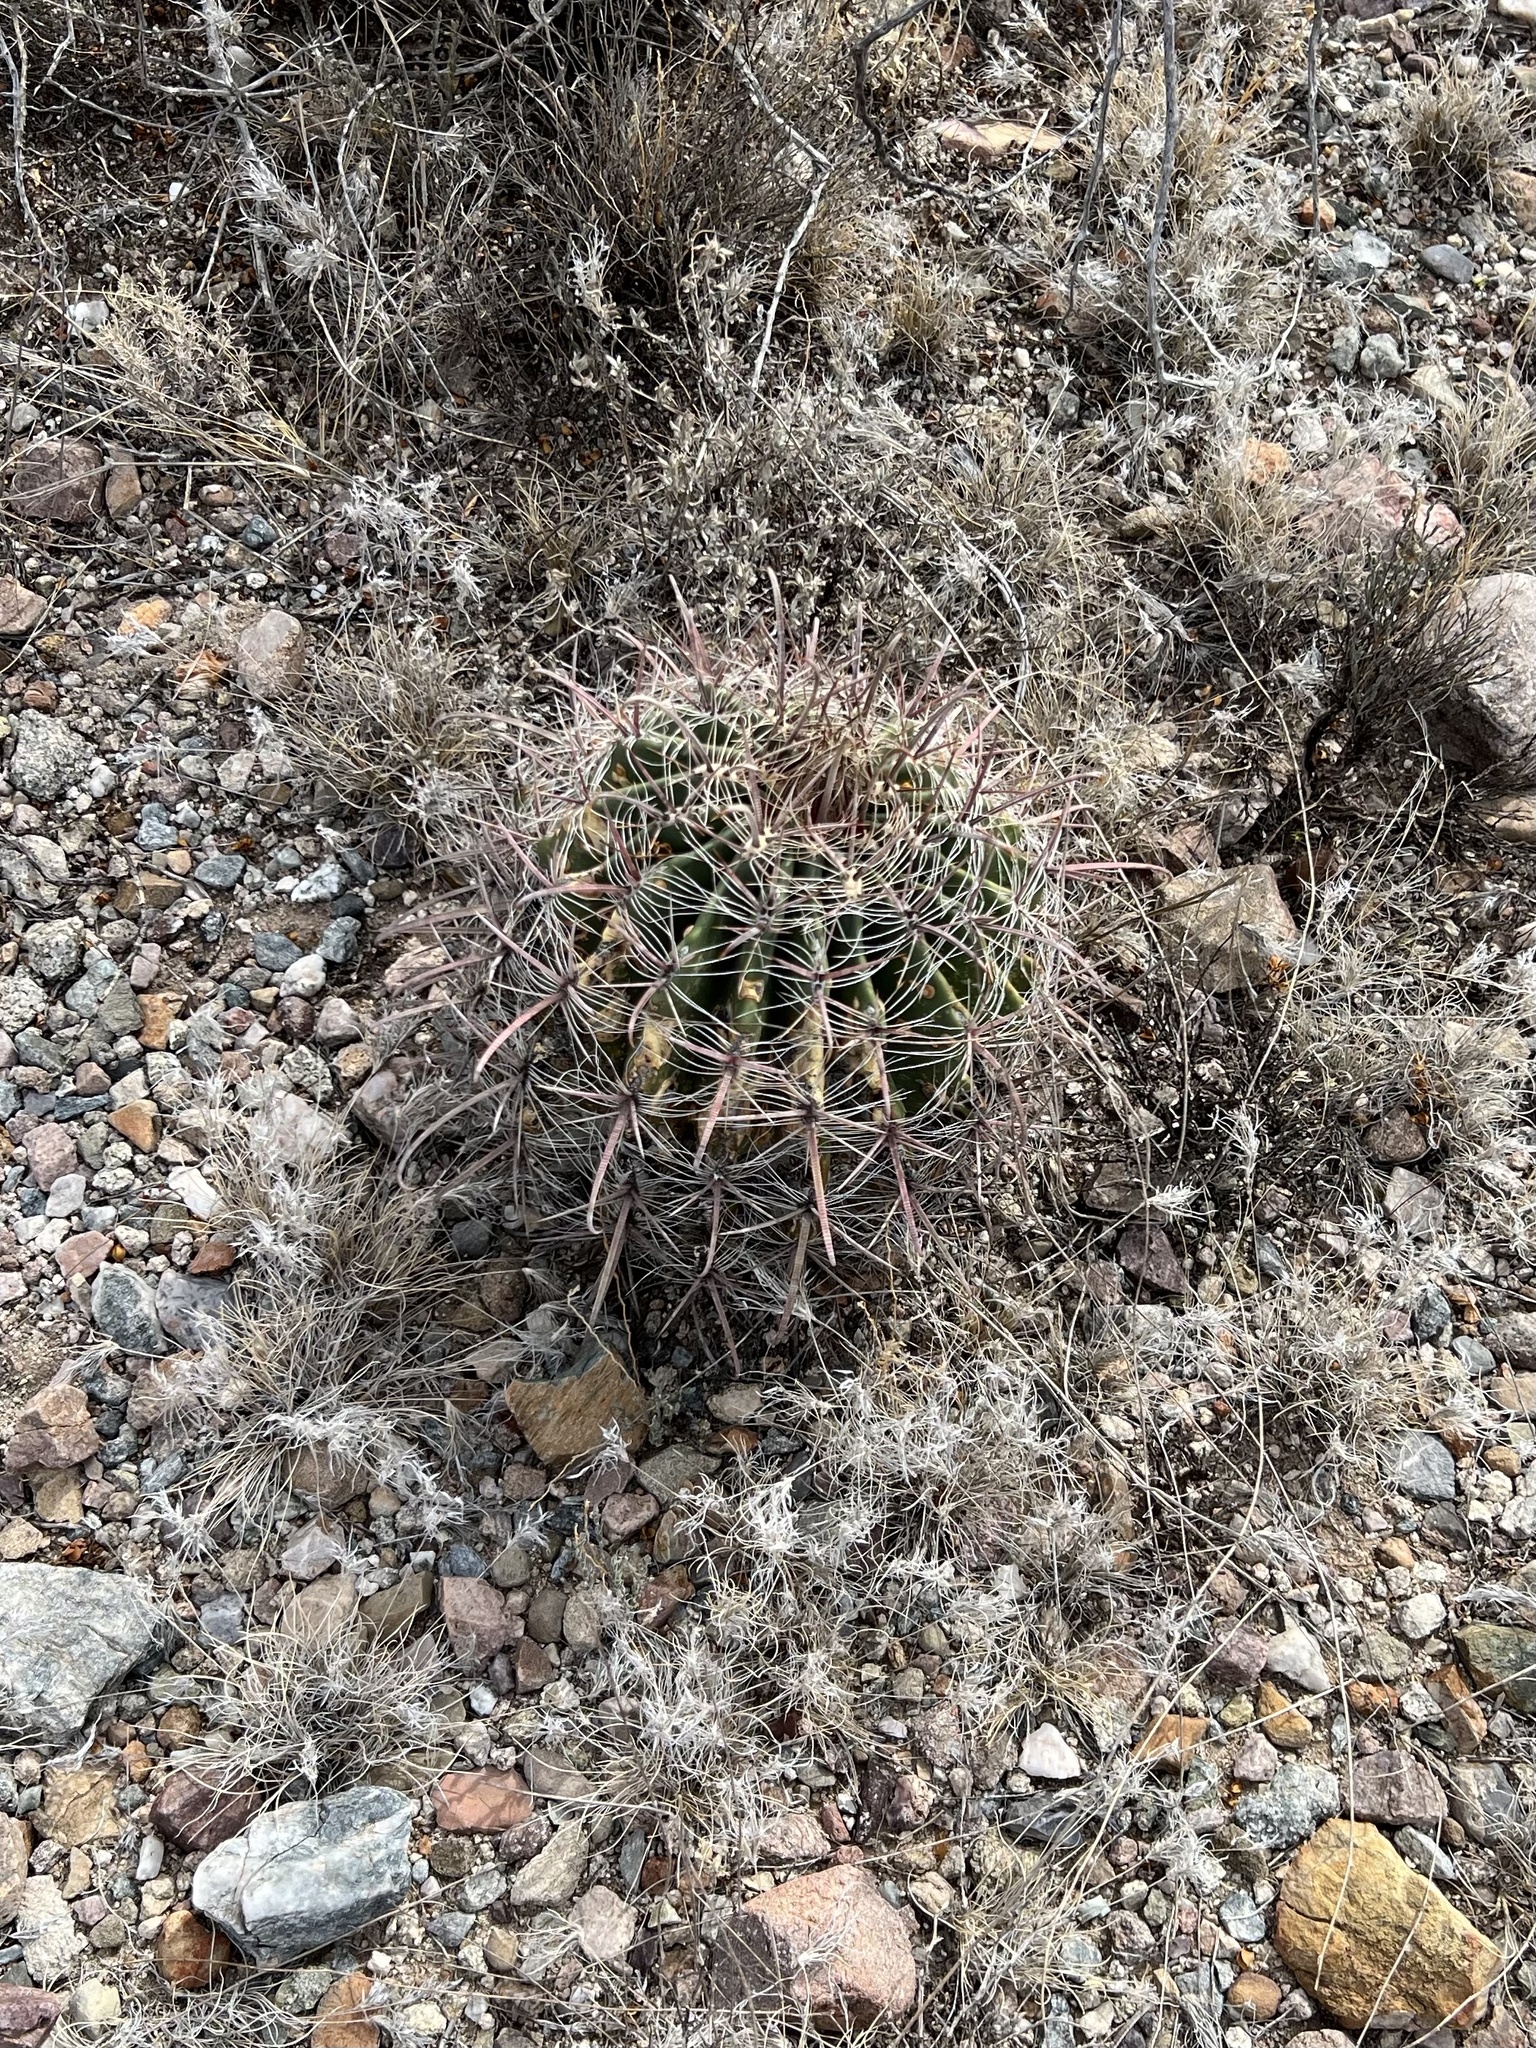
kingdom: Plantae
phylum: Tracheophyta
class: Magnoliopsida
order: Caryophyllales
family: Cactaceae
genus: Ferocactus
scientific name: Ferocactus wislizeni
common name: Candy barrel cactus
